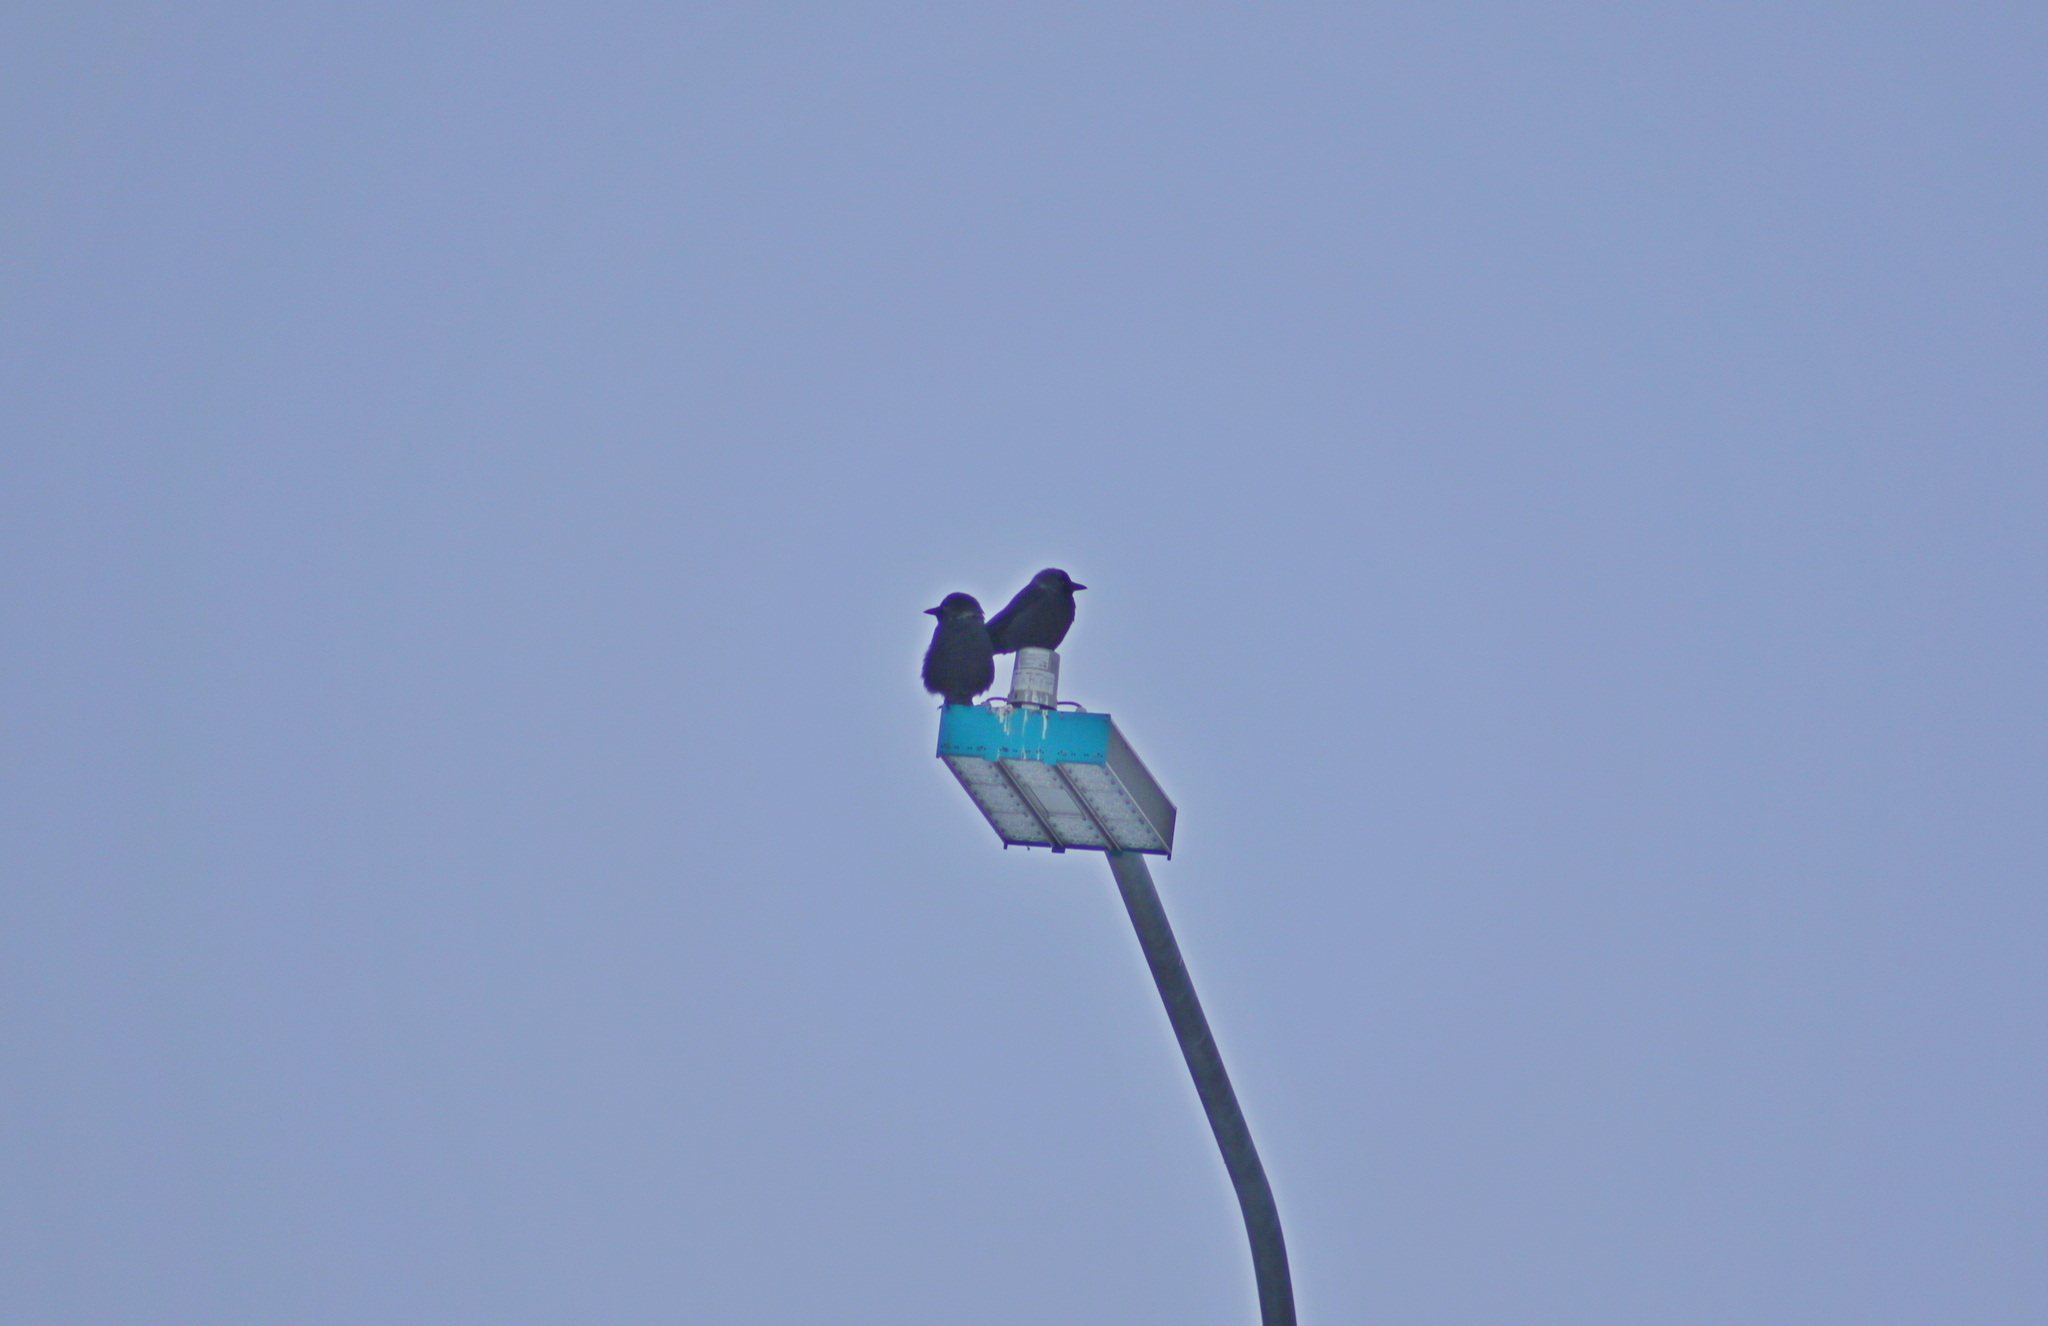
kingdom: Animalia
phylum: Chordata
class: Aves
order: Passeriformes
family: Corvidae
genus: Coloeus
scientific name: Coloeus monedula
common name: Western jackdaw
